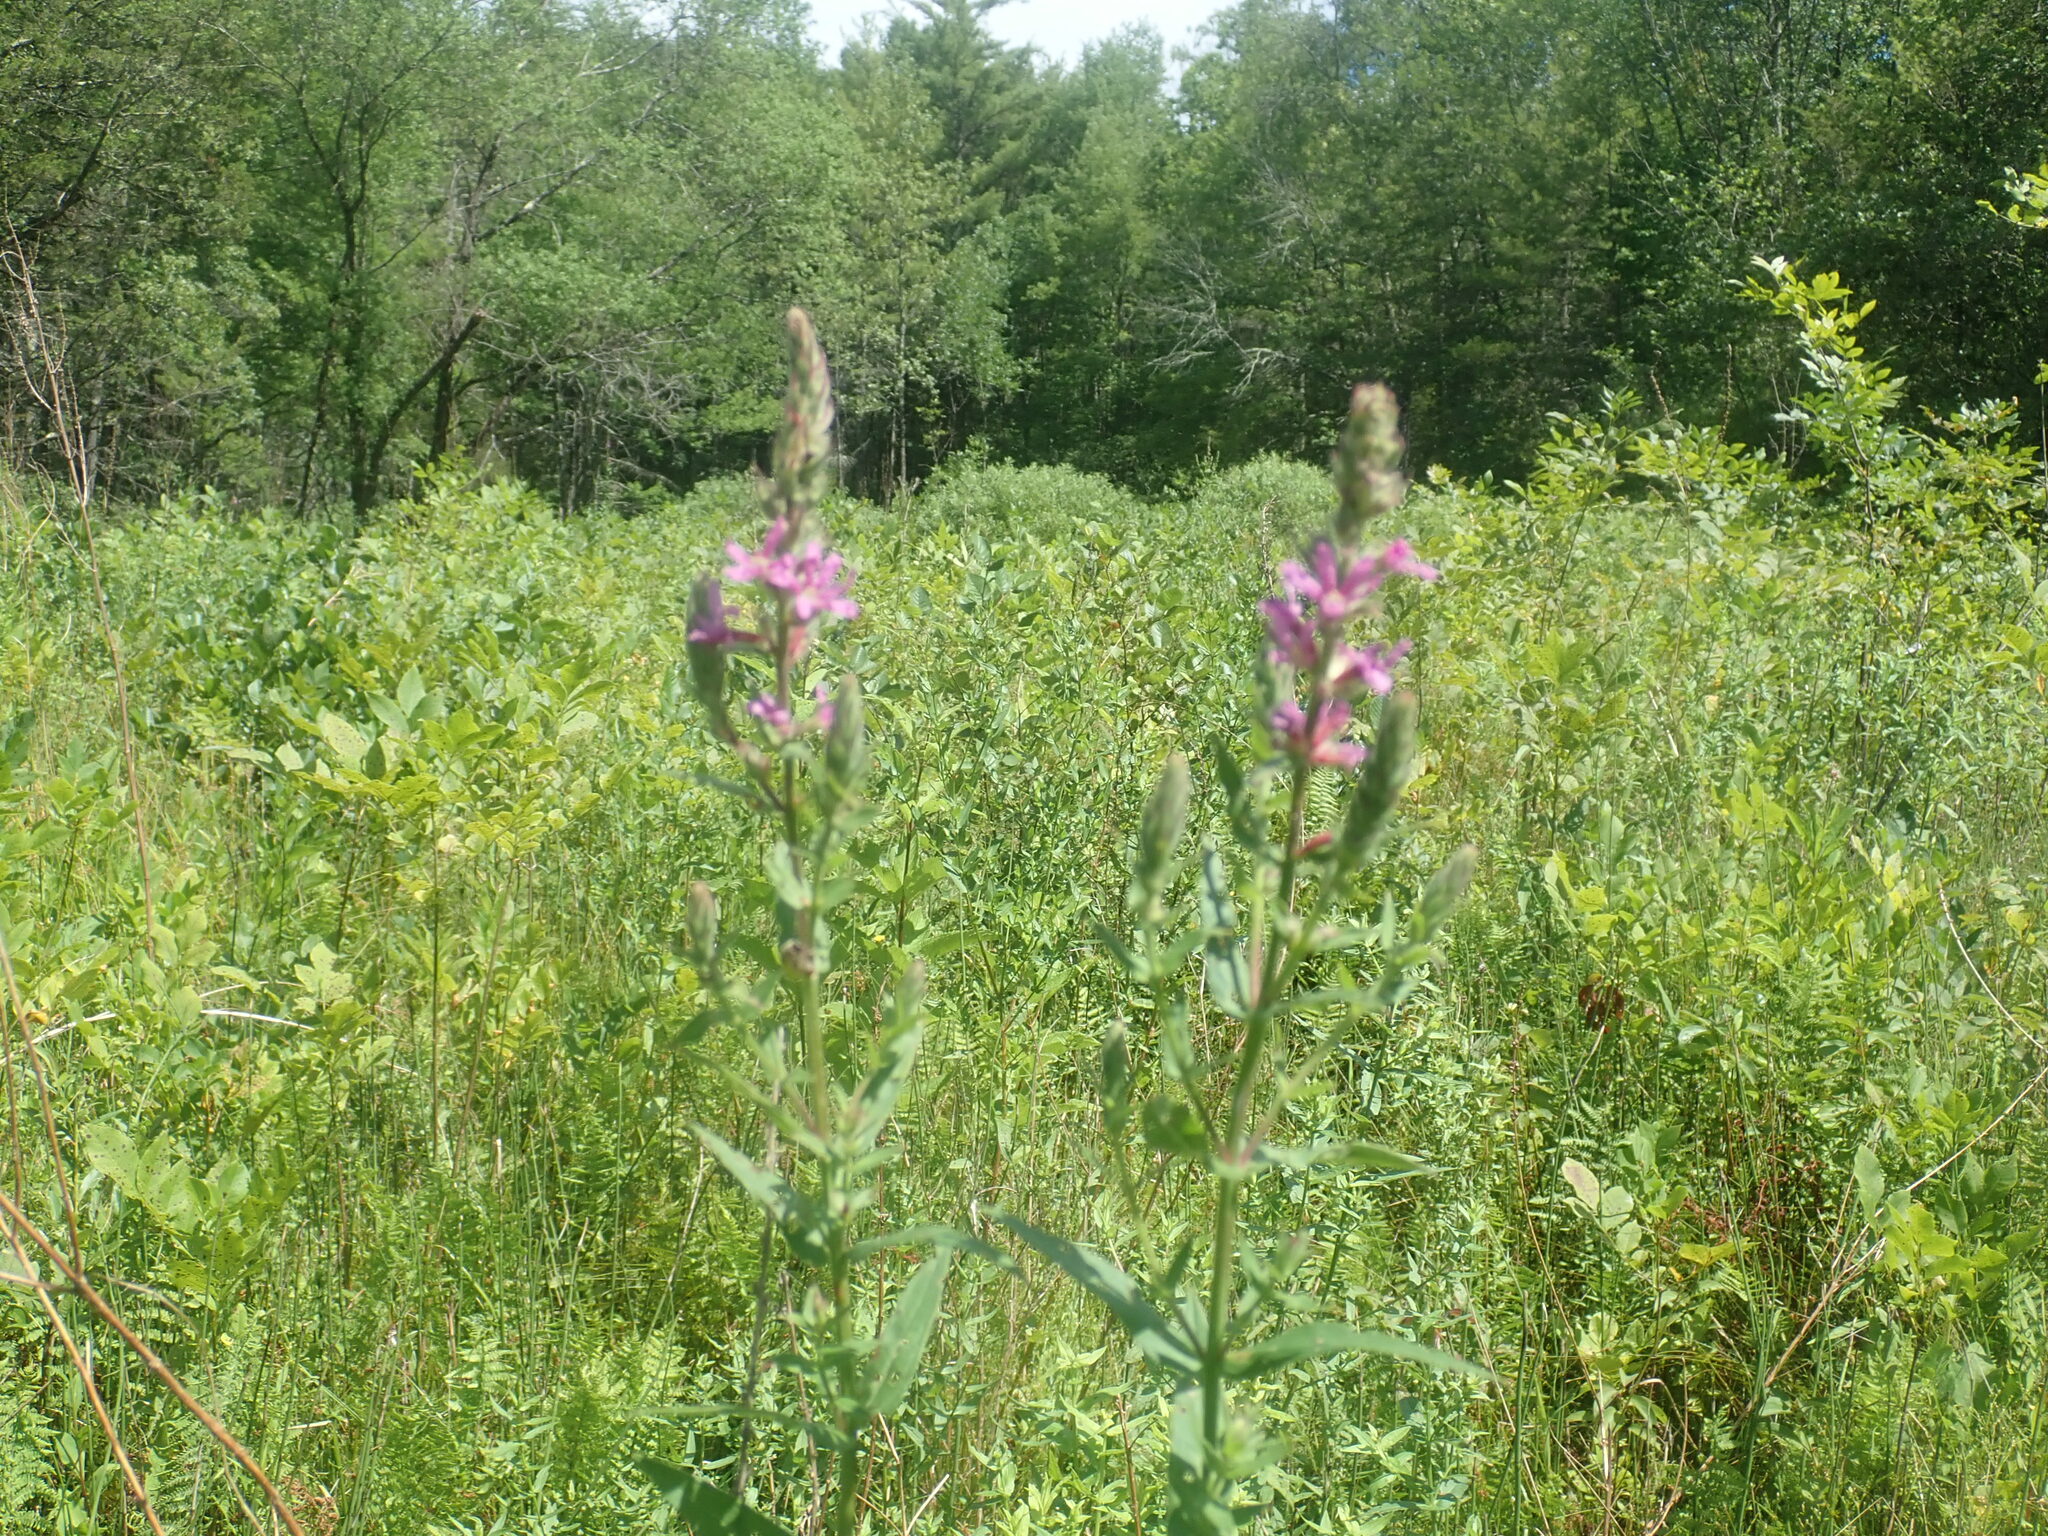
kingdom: Plantae
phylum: Tracheophyta
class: Magnoliopsida
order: Myrtales
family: Lythraceae
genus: Lythrum
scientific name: Lythrum salicaria
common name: Purple loosestrife
